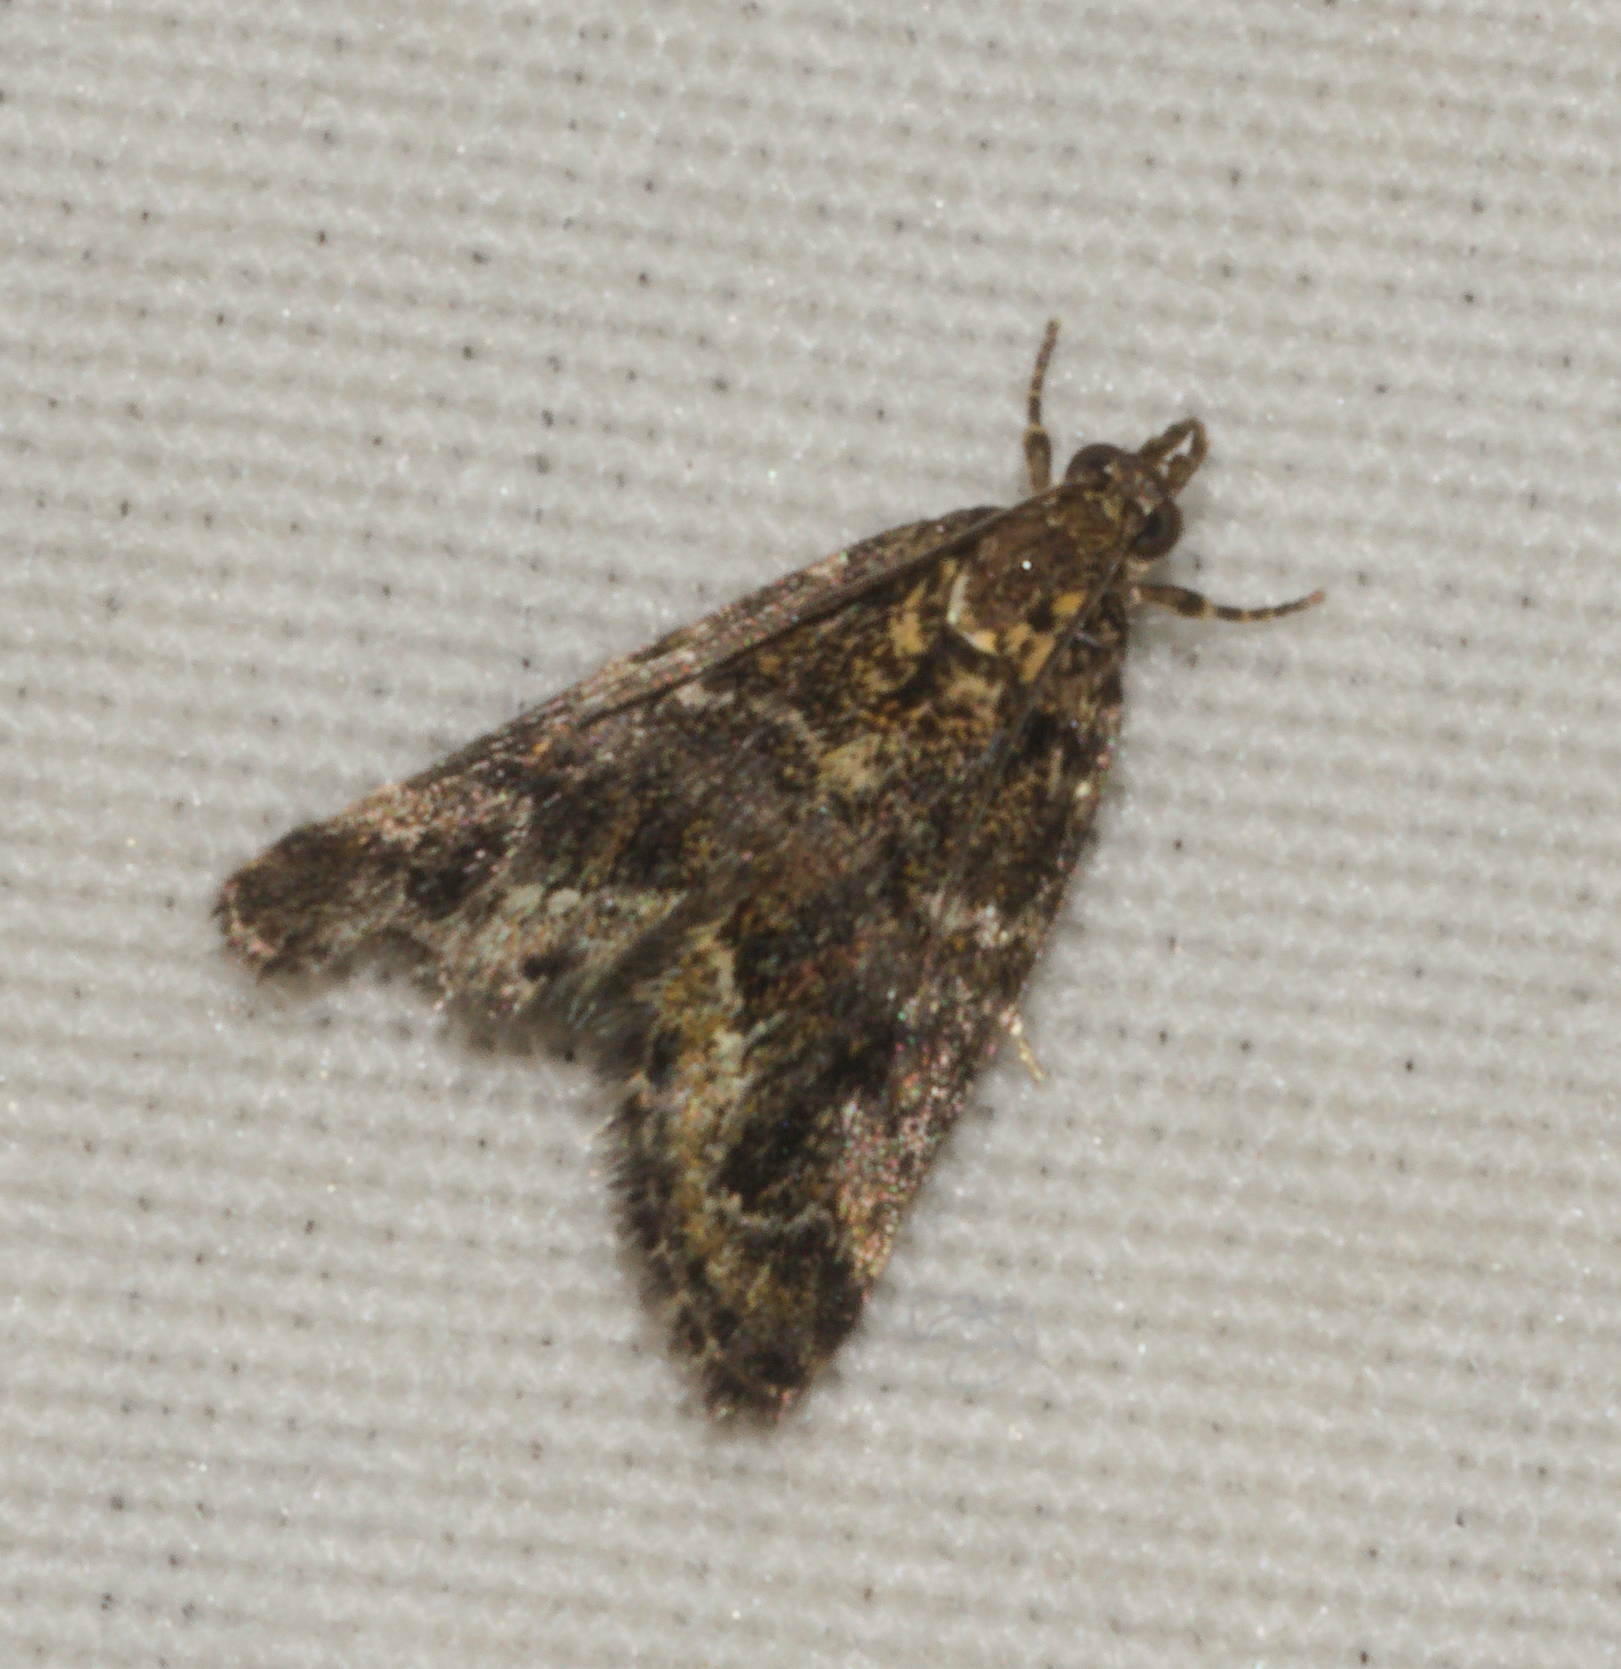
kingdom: Animalia
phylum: Arthropoda
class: Insecta
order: Lepidoptera
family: Crambidae
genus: Mestolobes
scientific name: Mestolobes abnormis
